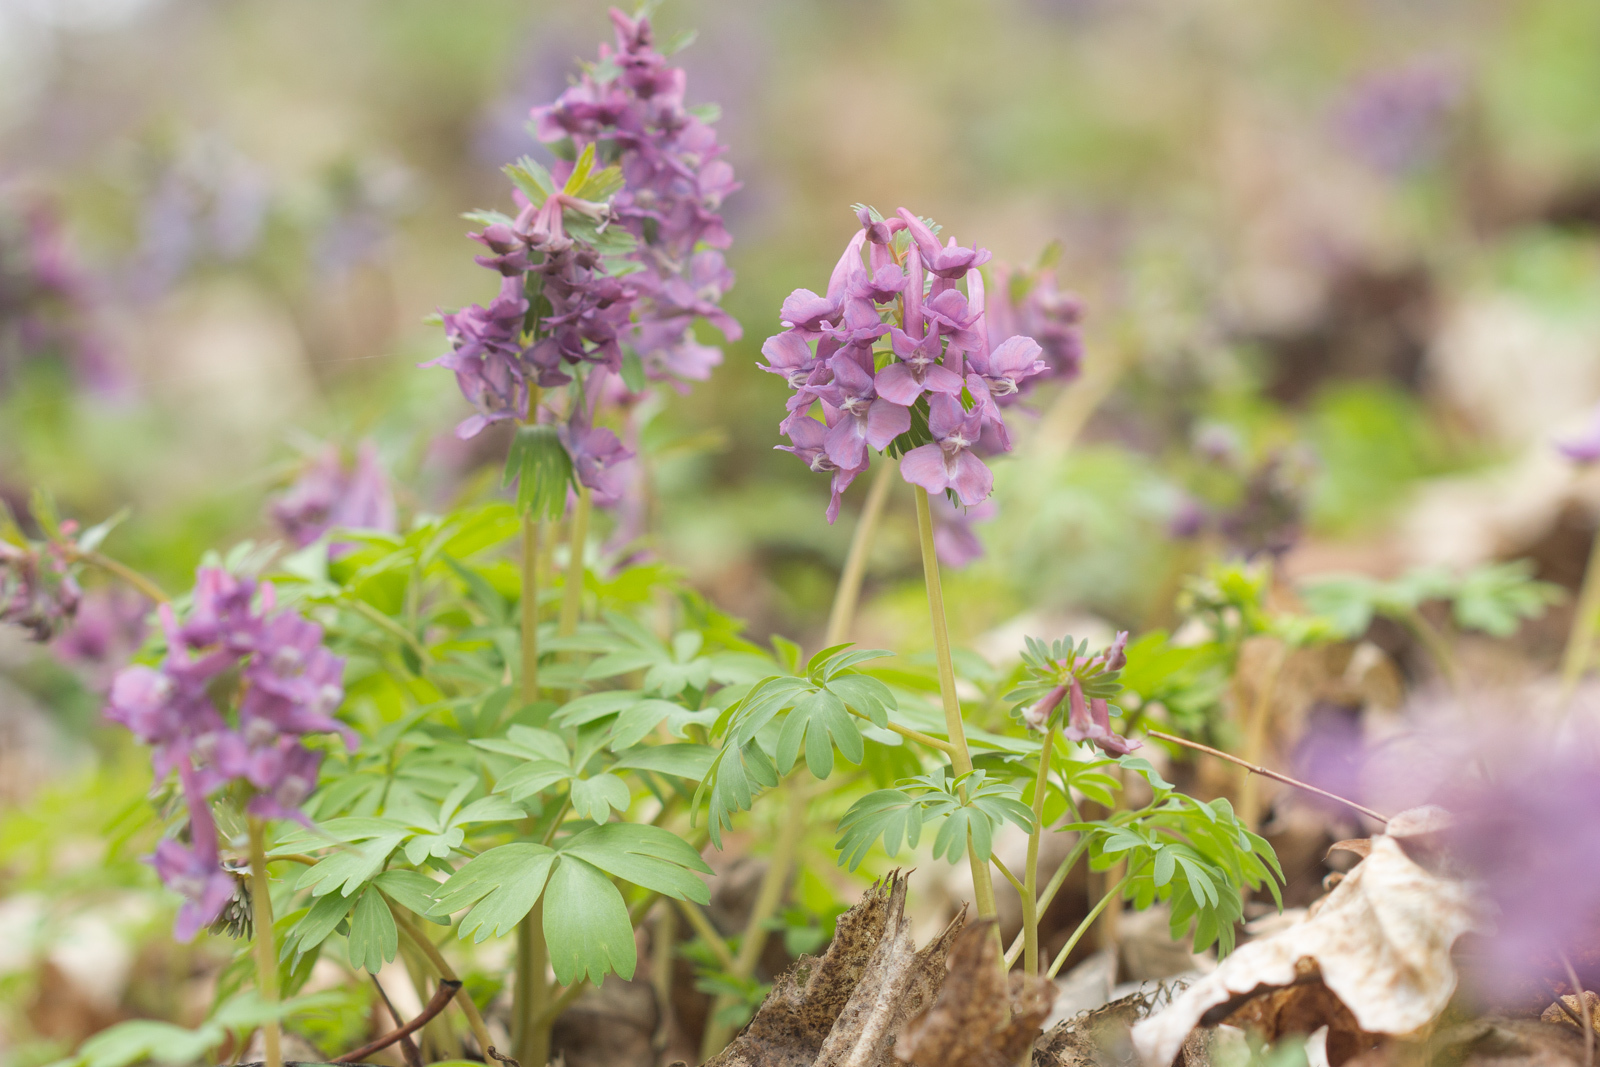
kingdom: Plantae
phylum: Tracheophyta
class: Magnoliopsida
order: Ranunculales
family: Papaveraceae
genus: Corydalis
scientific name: Corydalis solida
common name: Bird-in-a-bush
